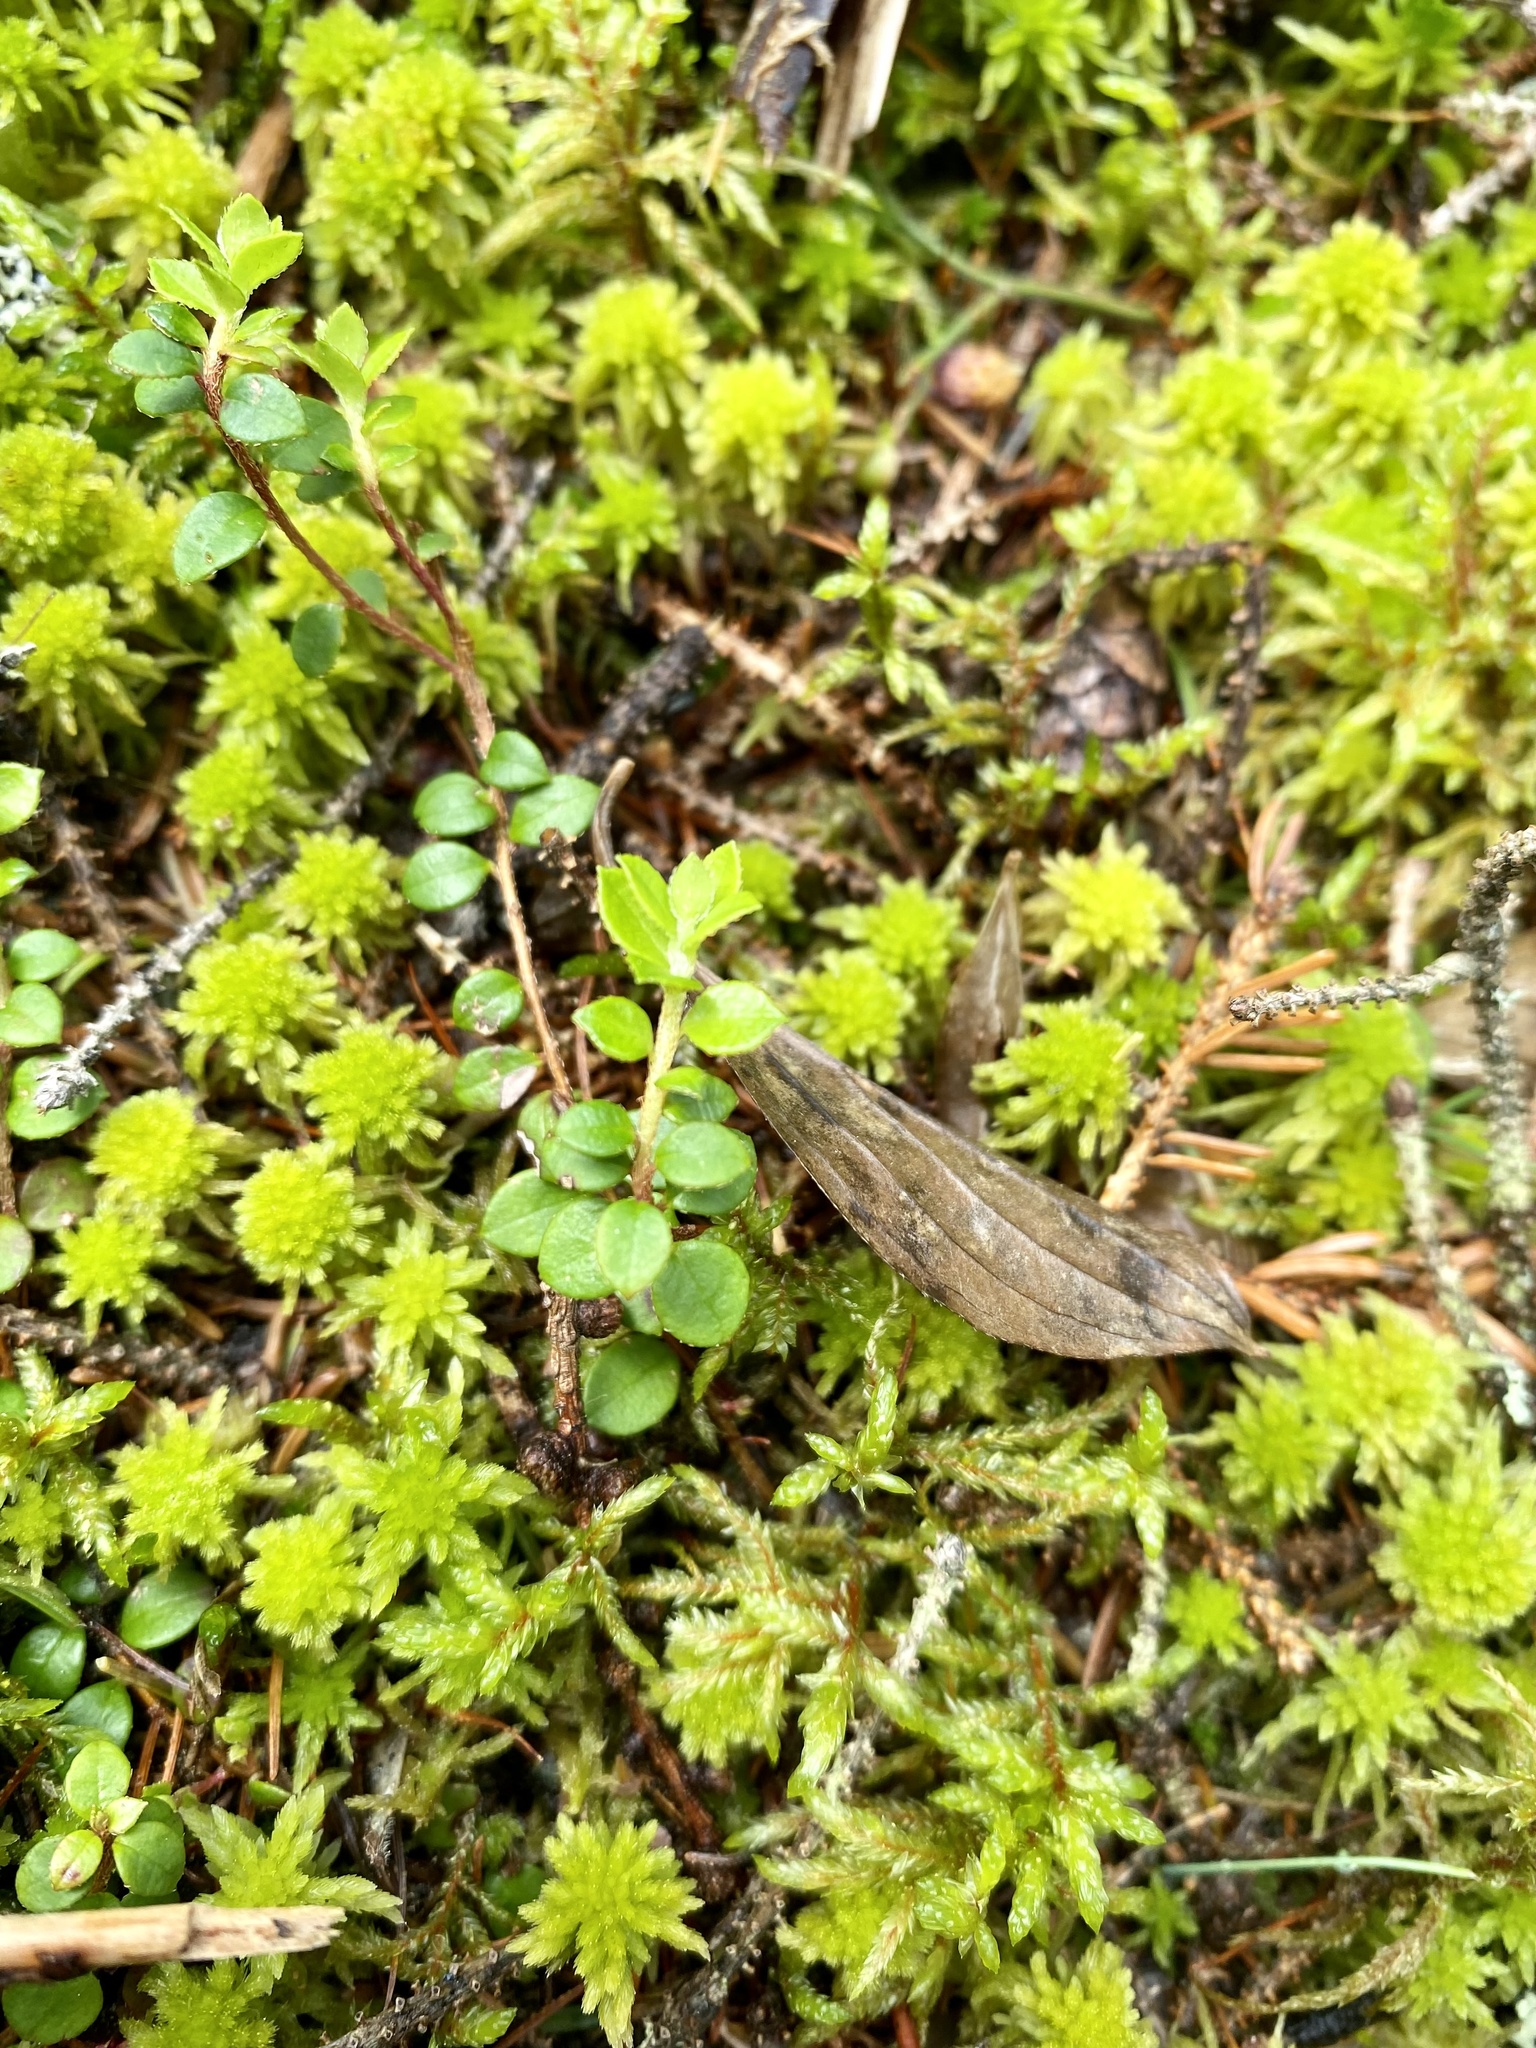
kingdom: Plantae
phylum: Tracheophyta
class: Magnoliopsida
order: Ericales
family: Ericaceae
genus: Gaultheria
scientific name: Gaultheria hispidula
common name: Cancer wintergreen
